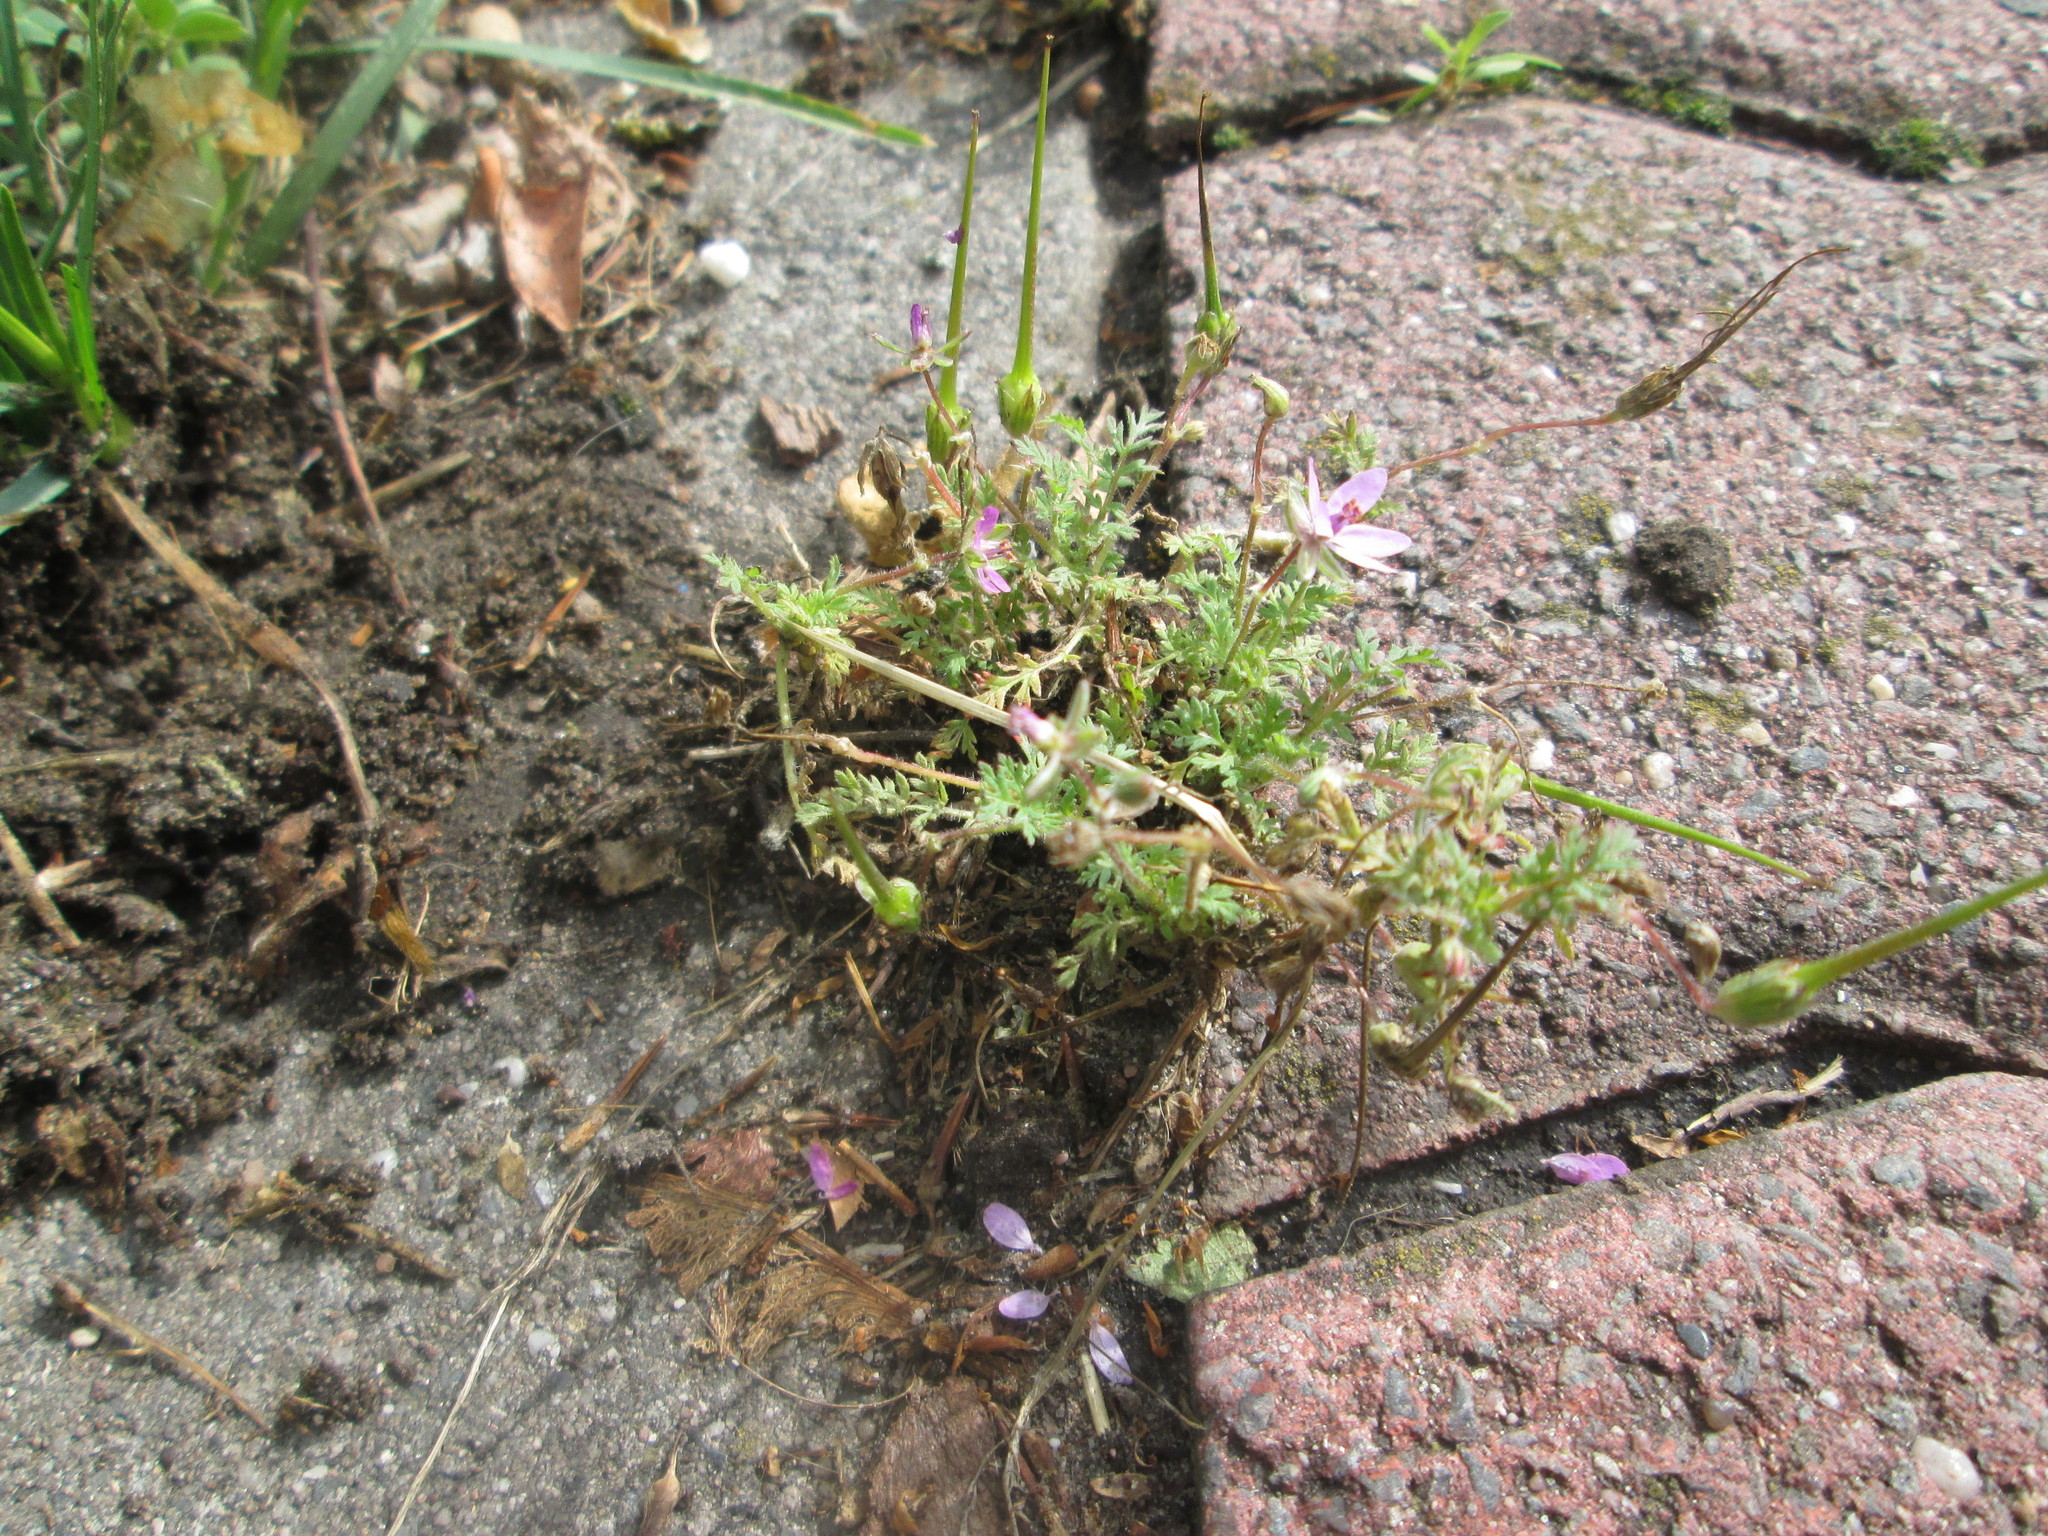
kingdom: Plantae
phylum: Tracheophyta
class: Magnoliopsida
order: Geraniales
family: Geraniaceae
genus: Erodium
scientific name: Erodium cicutarium
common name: Common stork's-bill
